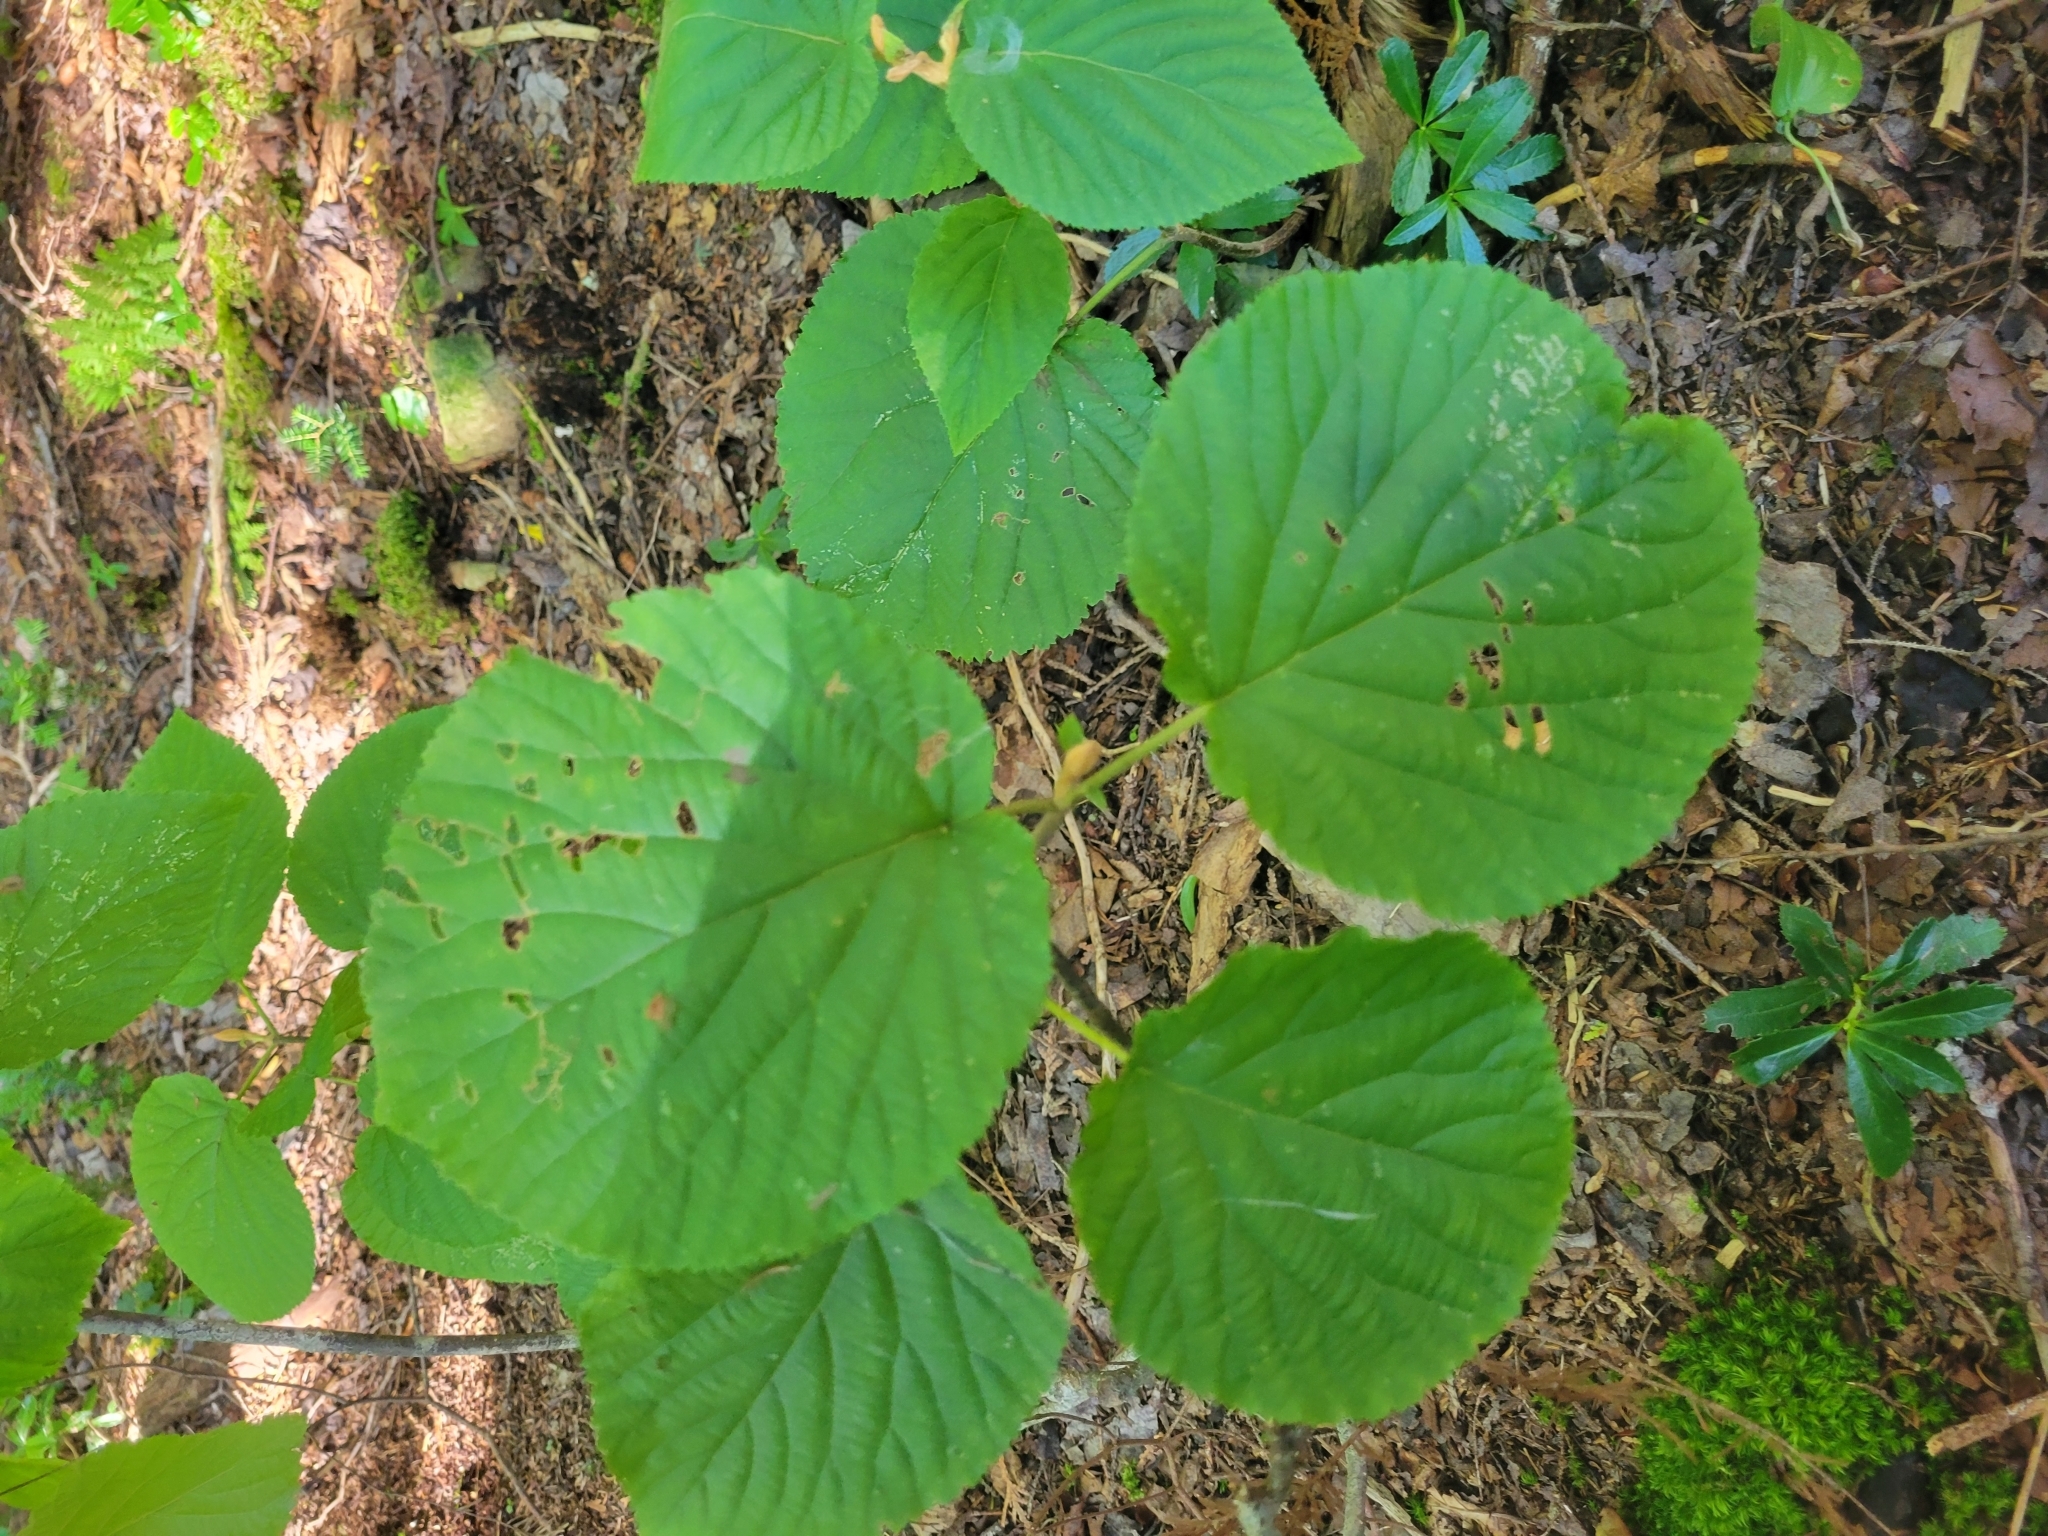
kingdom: Plantae
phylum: Tracheophyta
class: Magnoliopsida
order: Dipsacales
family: Viburnaceae
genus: Viburnum
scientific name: Viburnum lantanoides
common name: Hobblebush
